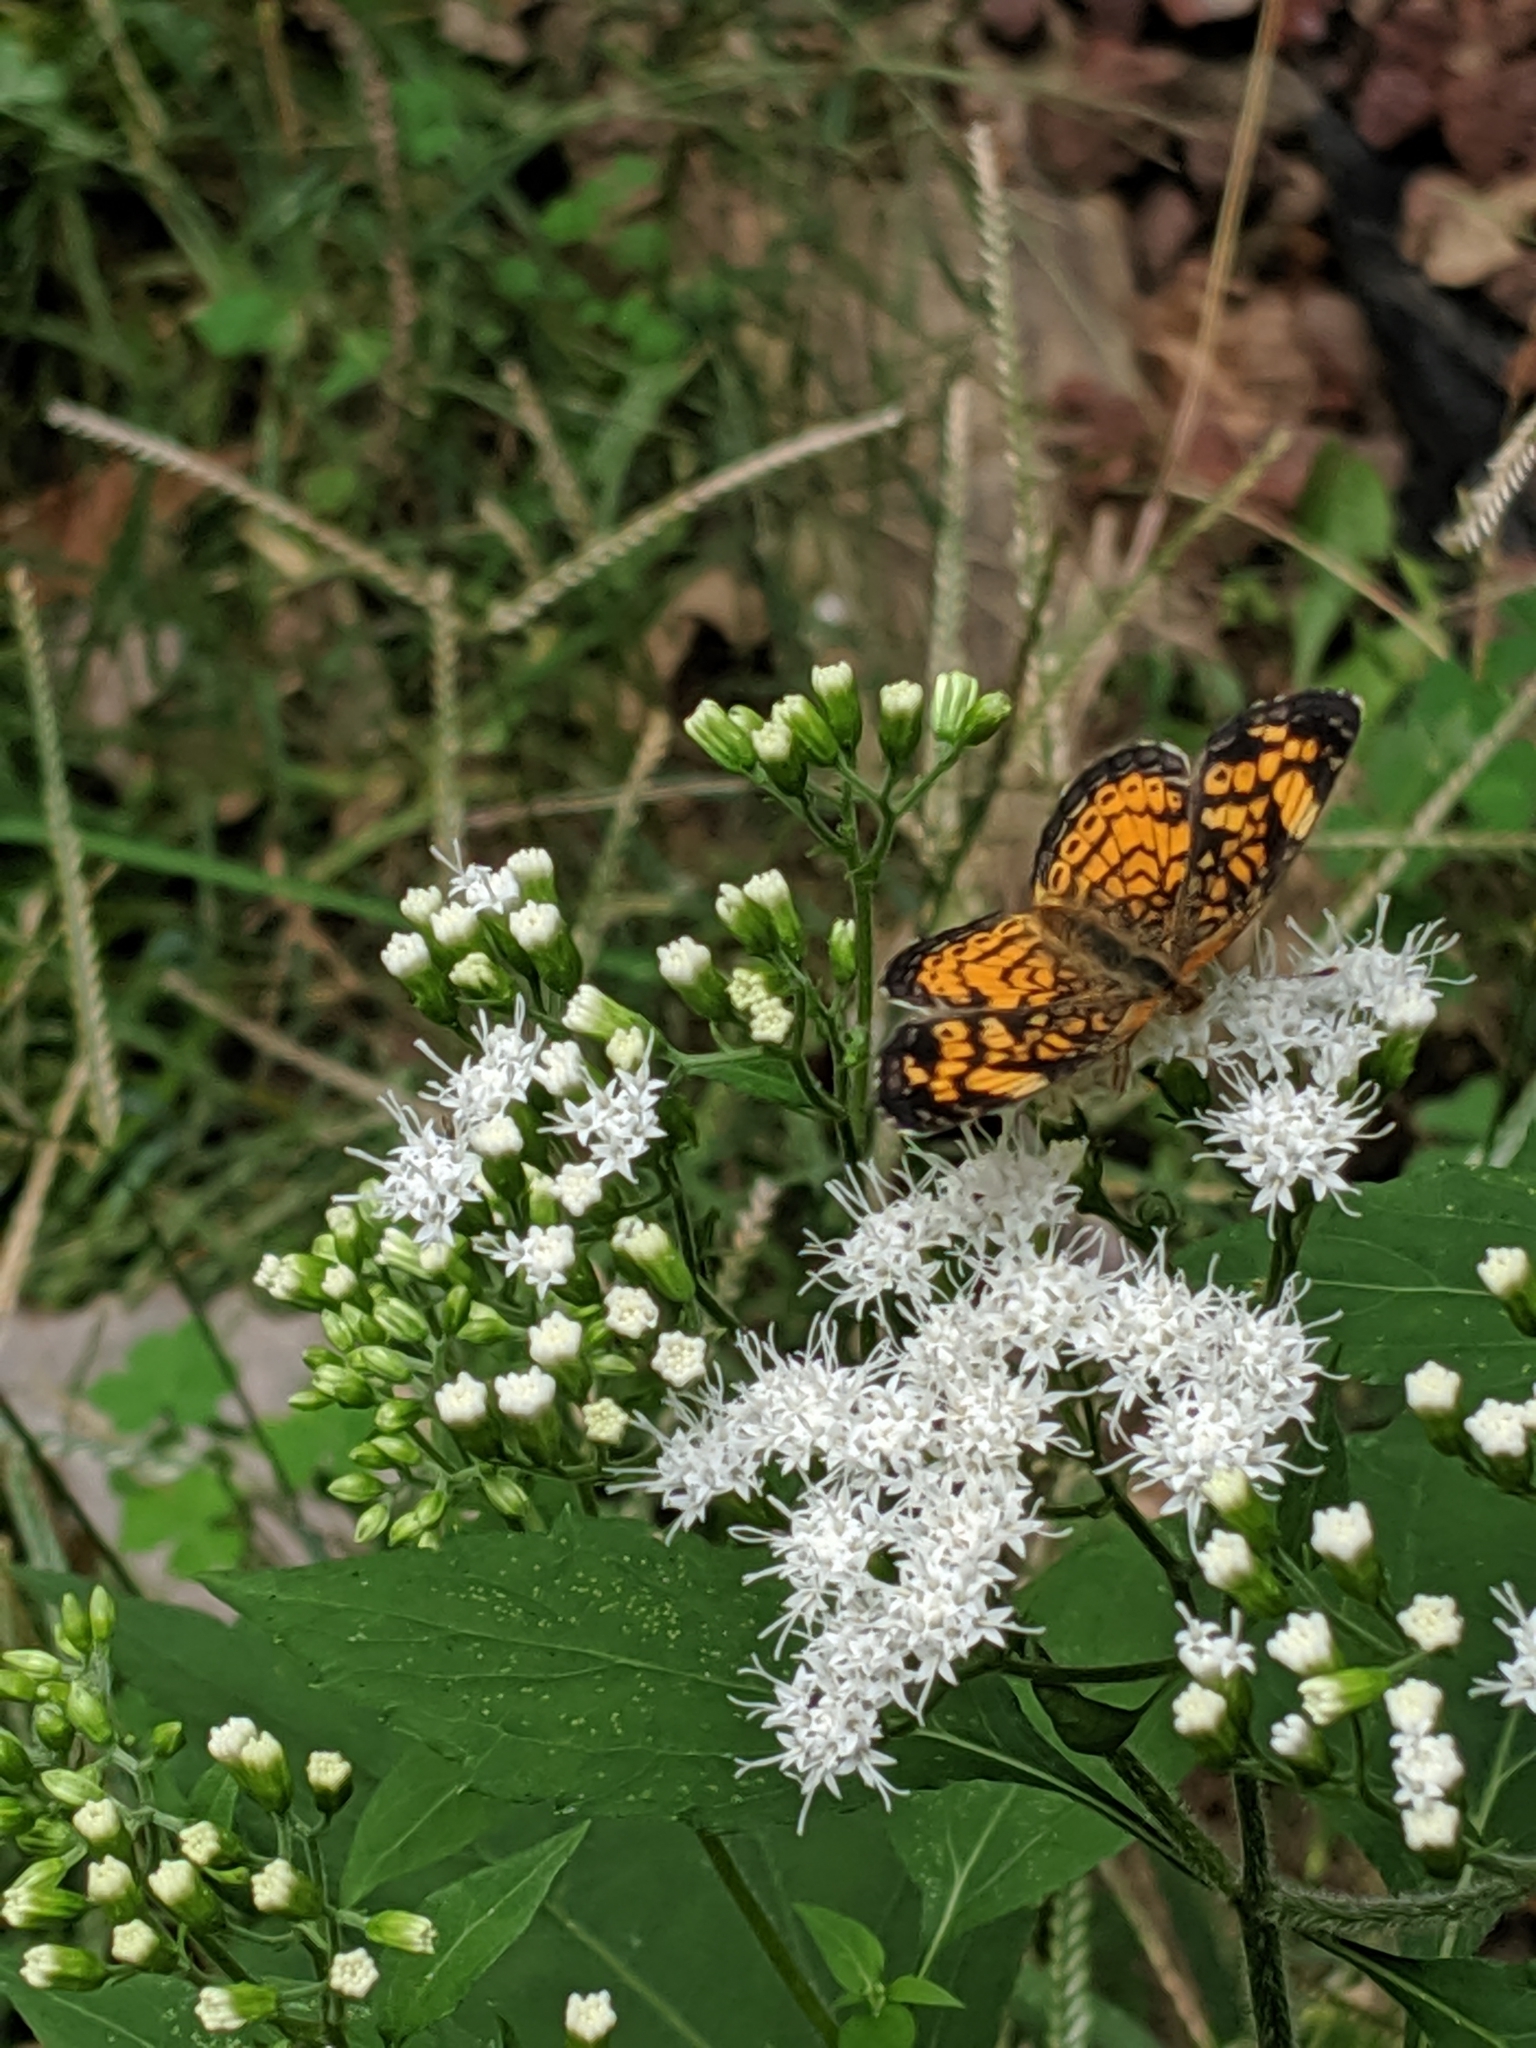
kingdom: Animalia
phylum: Arthropoda
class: Insecta
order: Lepidoptera
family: Nymphalidae
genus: Phyciodes
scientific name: Phyciodes tharos
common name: Pearl crescent
